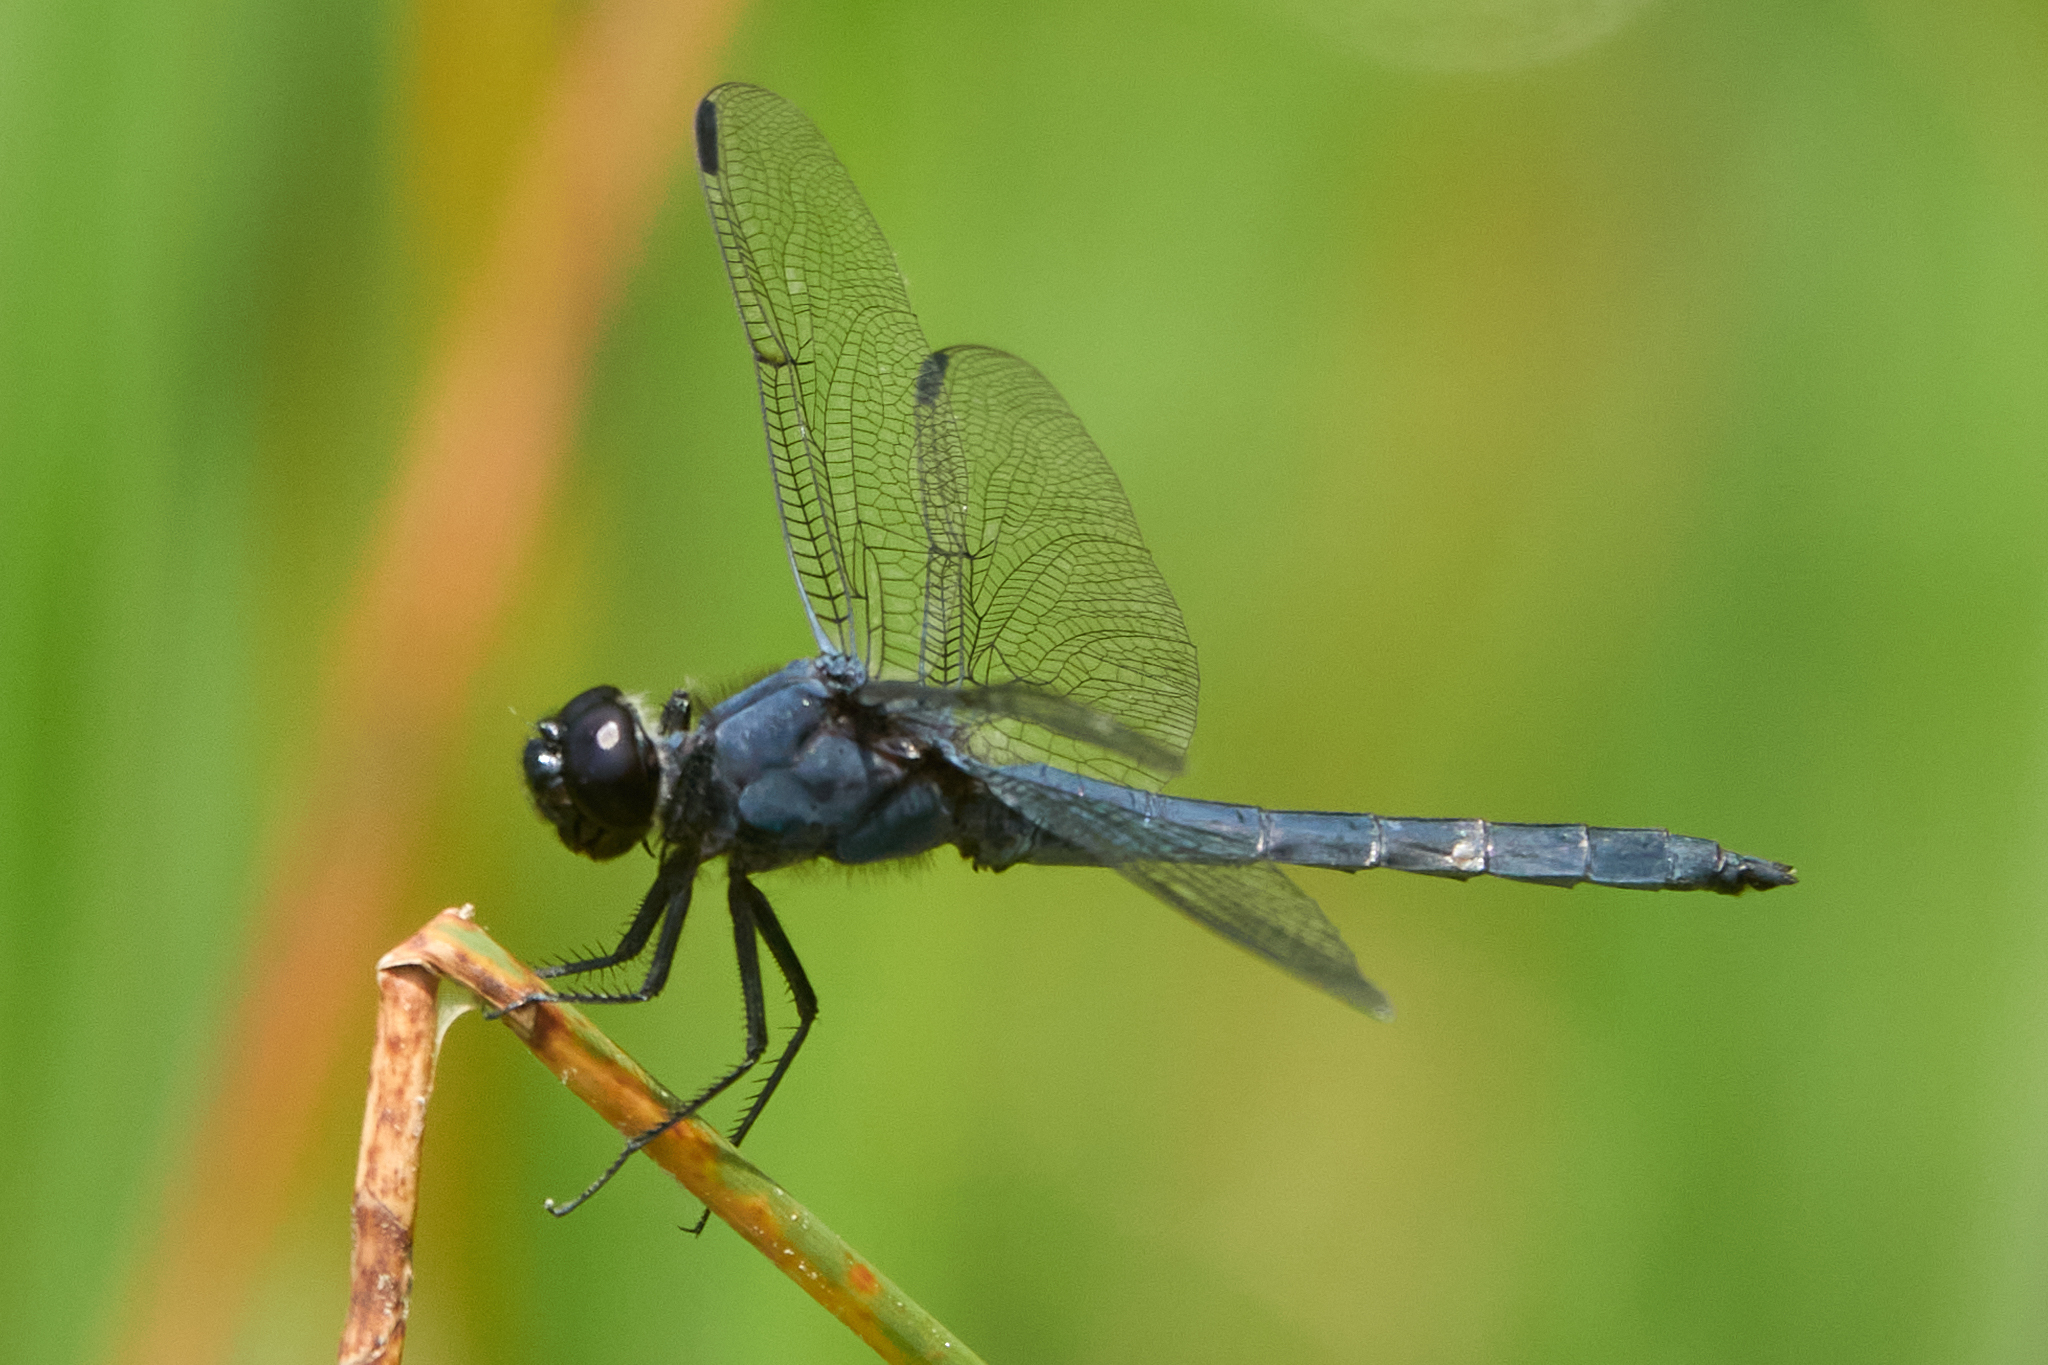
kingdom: Animalia
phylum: Arthropoda
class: Insecta
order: Odonata
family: Libellulidae
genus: Libellula
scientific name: Libellula incesta
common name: Slaty skimmer
